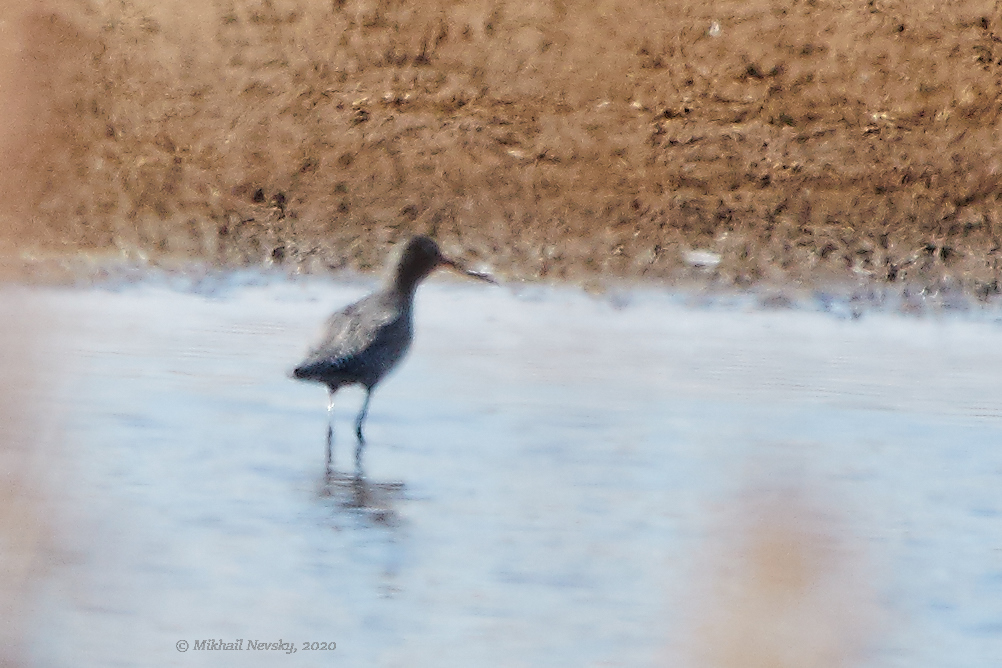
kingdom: Animalia
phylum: Chordata
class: Aves
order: Charadriiformes
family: Scolopacidae
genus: Tringa
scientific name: Tringa erythropus
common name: Spotted redshank
